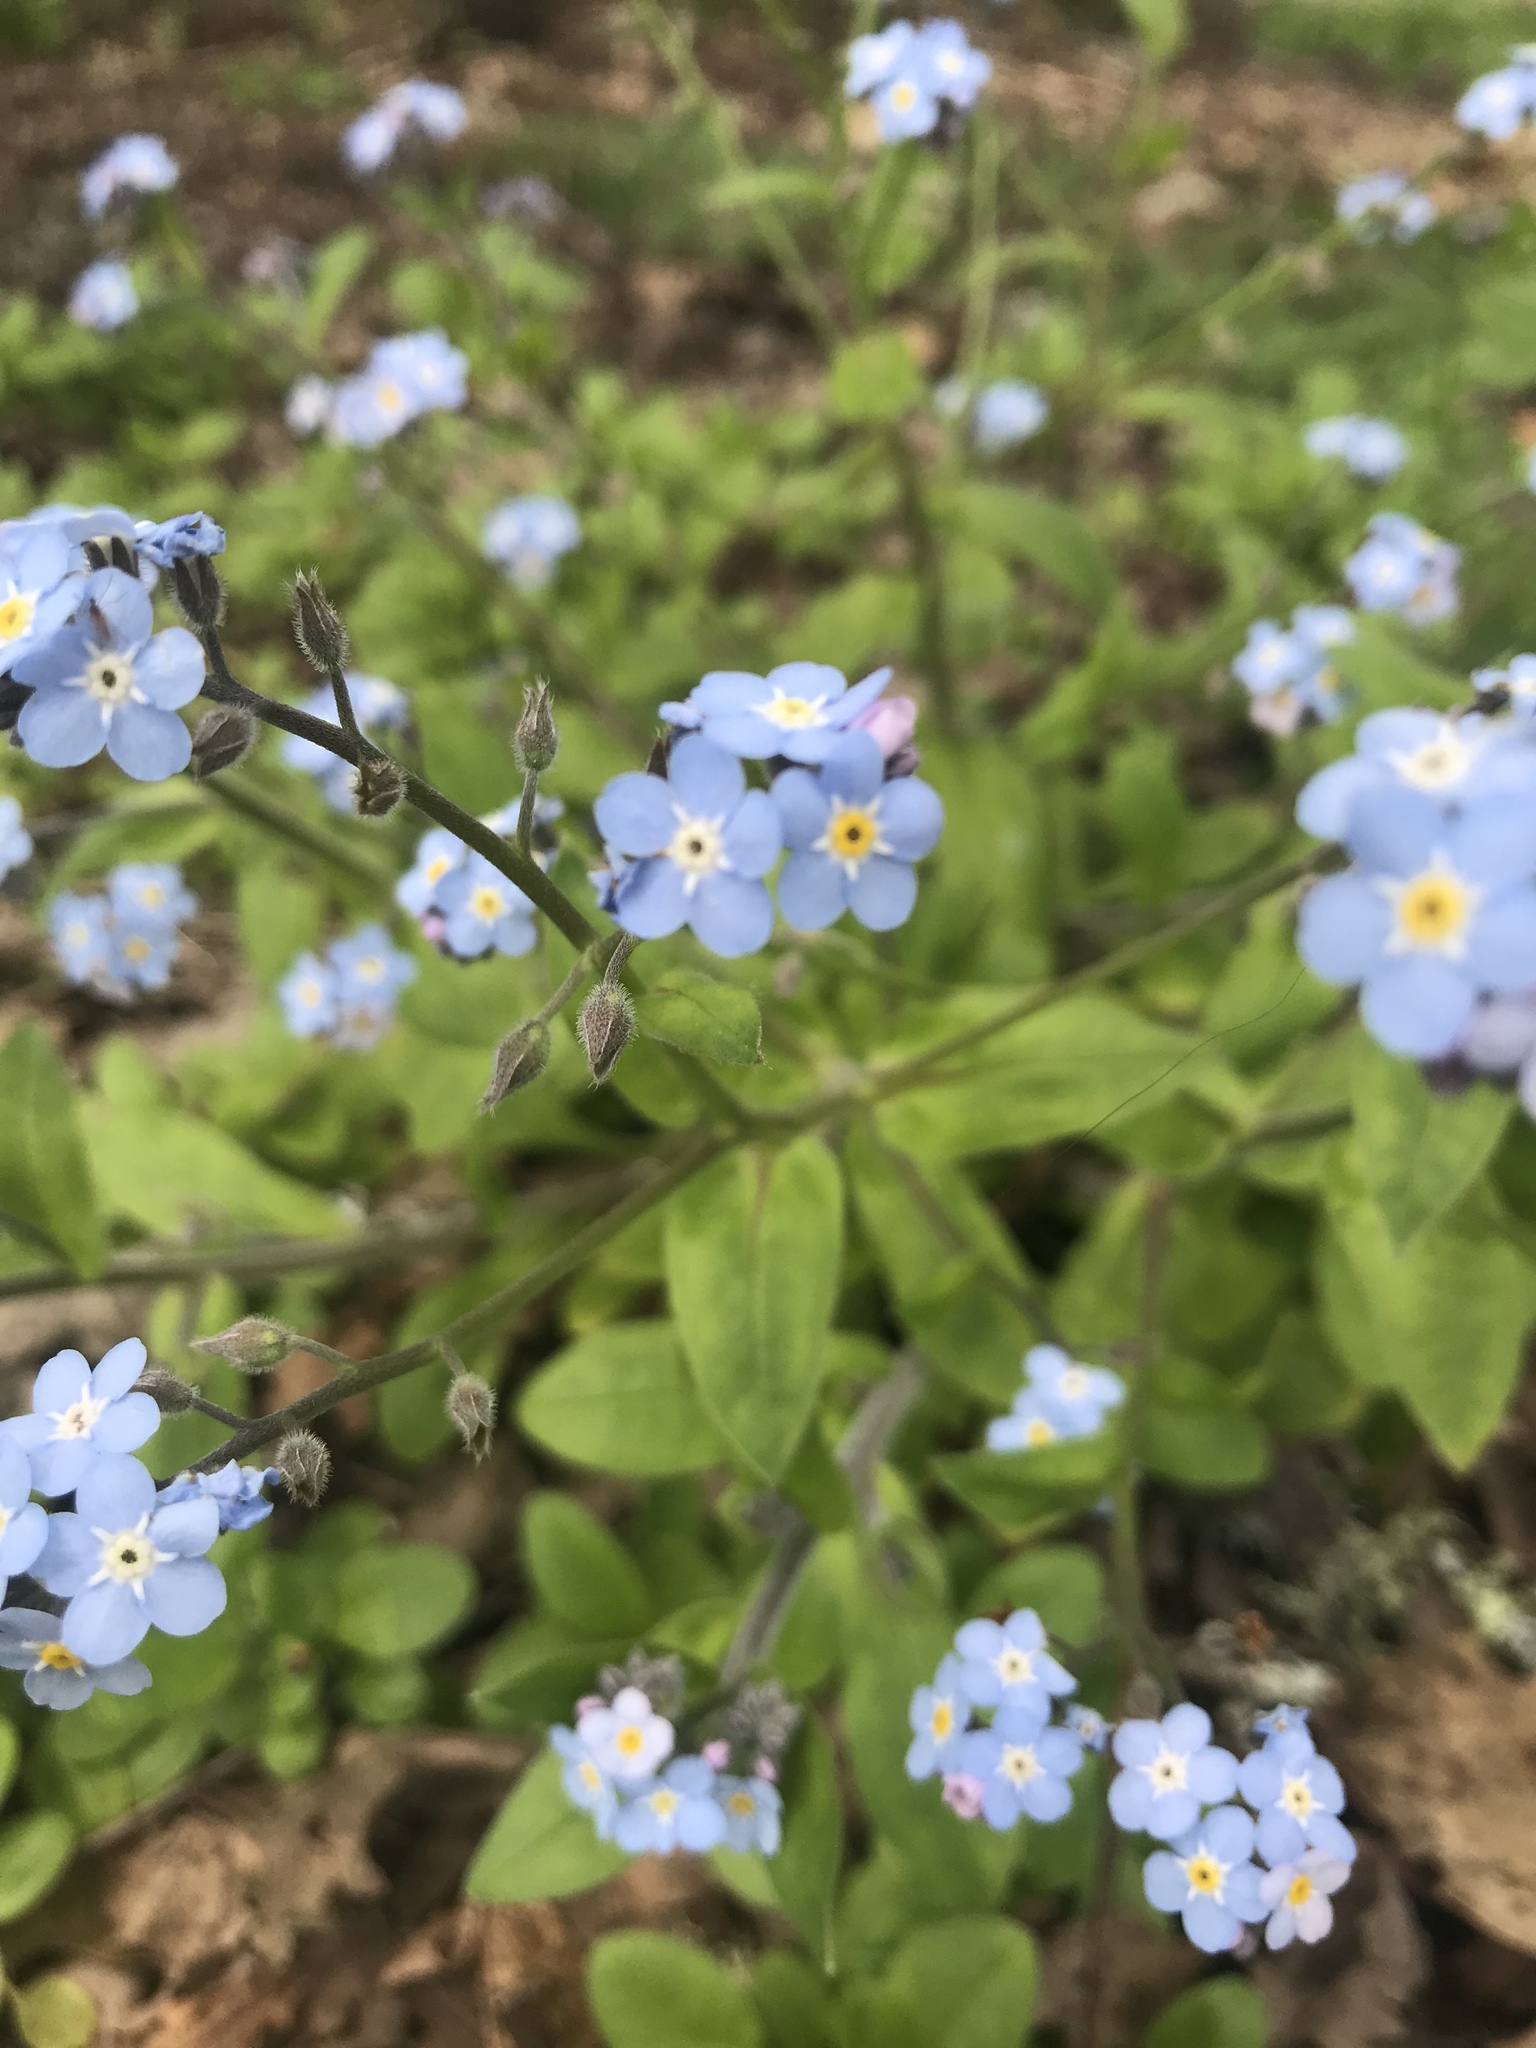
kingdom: Plantae
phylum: Tracheophyta
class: Magnoliopsida
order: Boraginales
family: Boraginaceae
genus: Myosotis
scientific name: Myosotis latifolia
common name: Broadleaf forget-me-not
